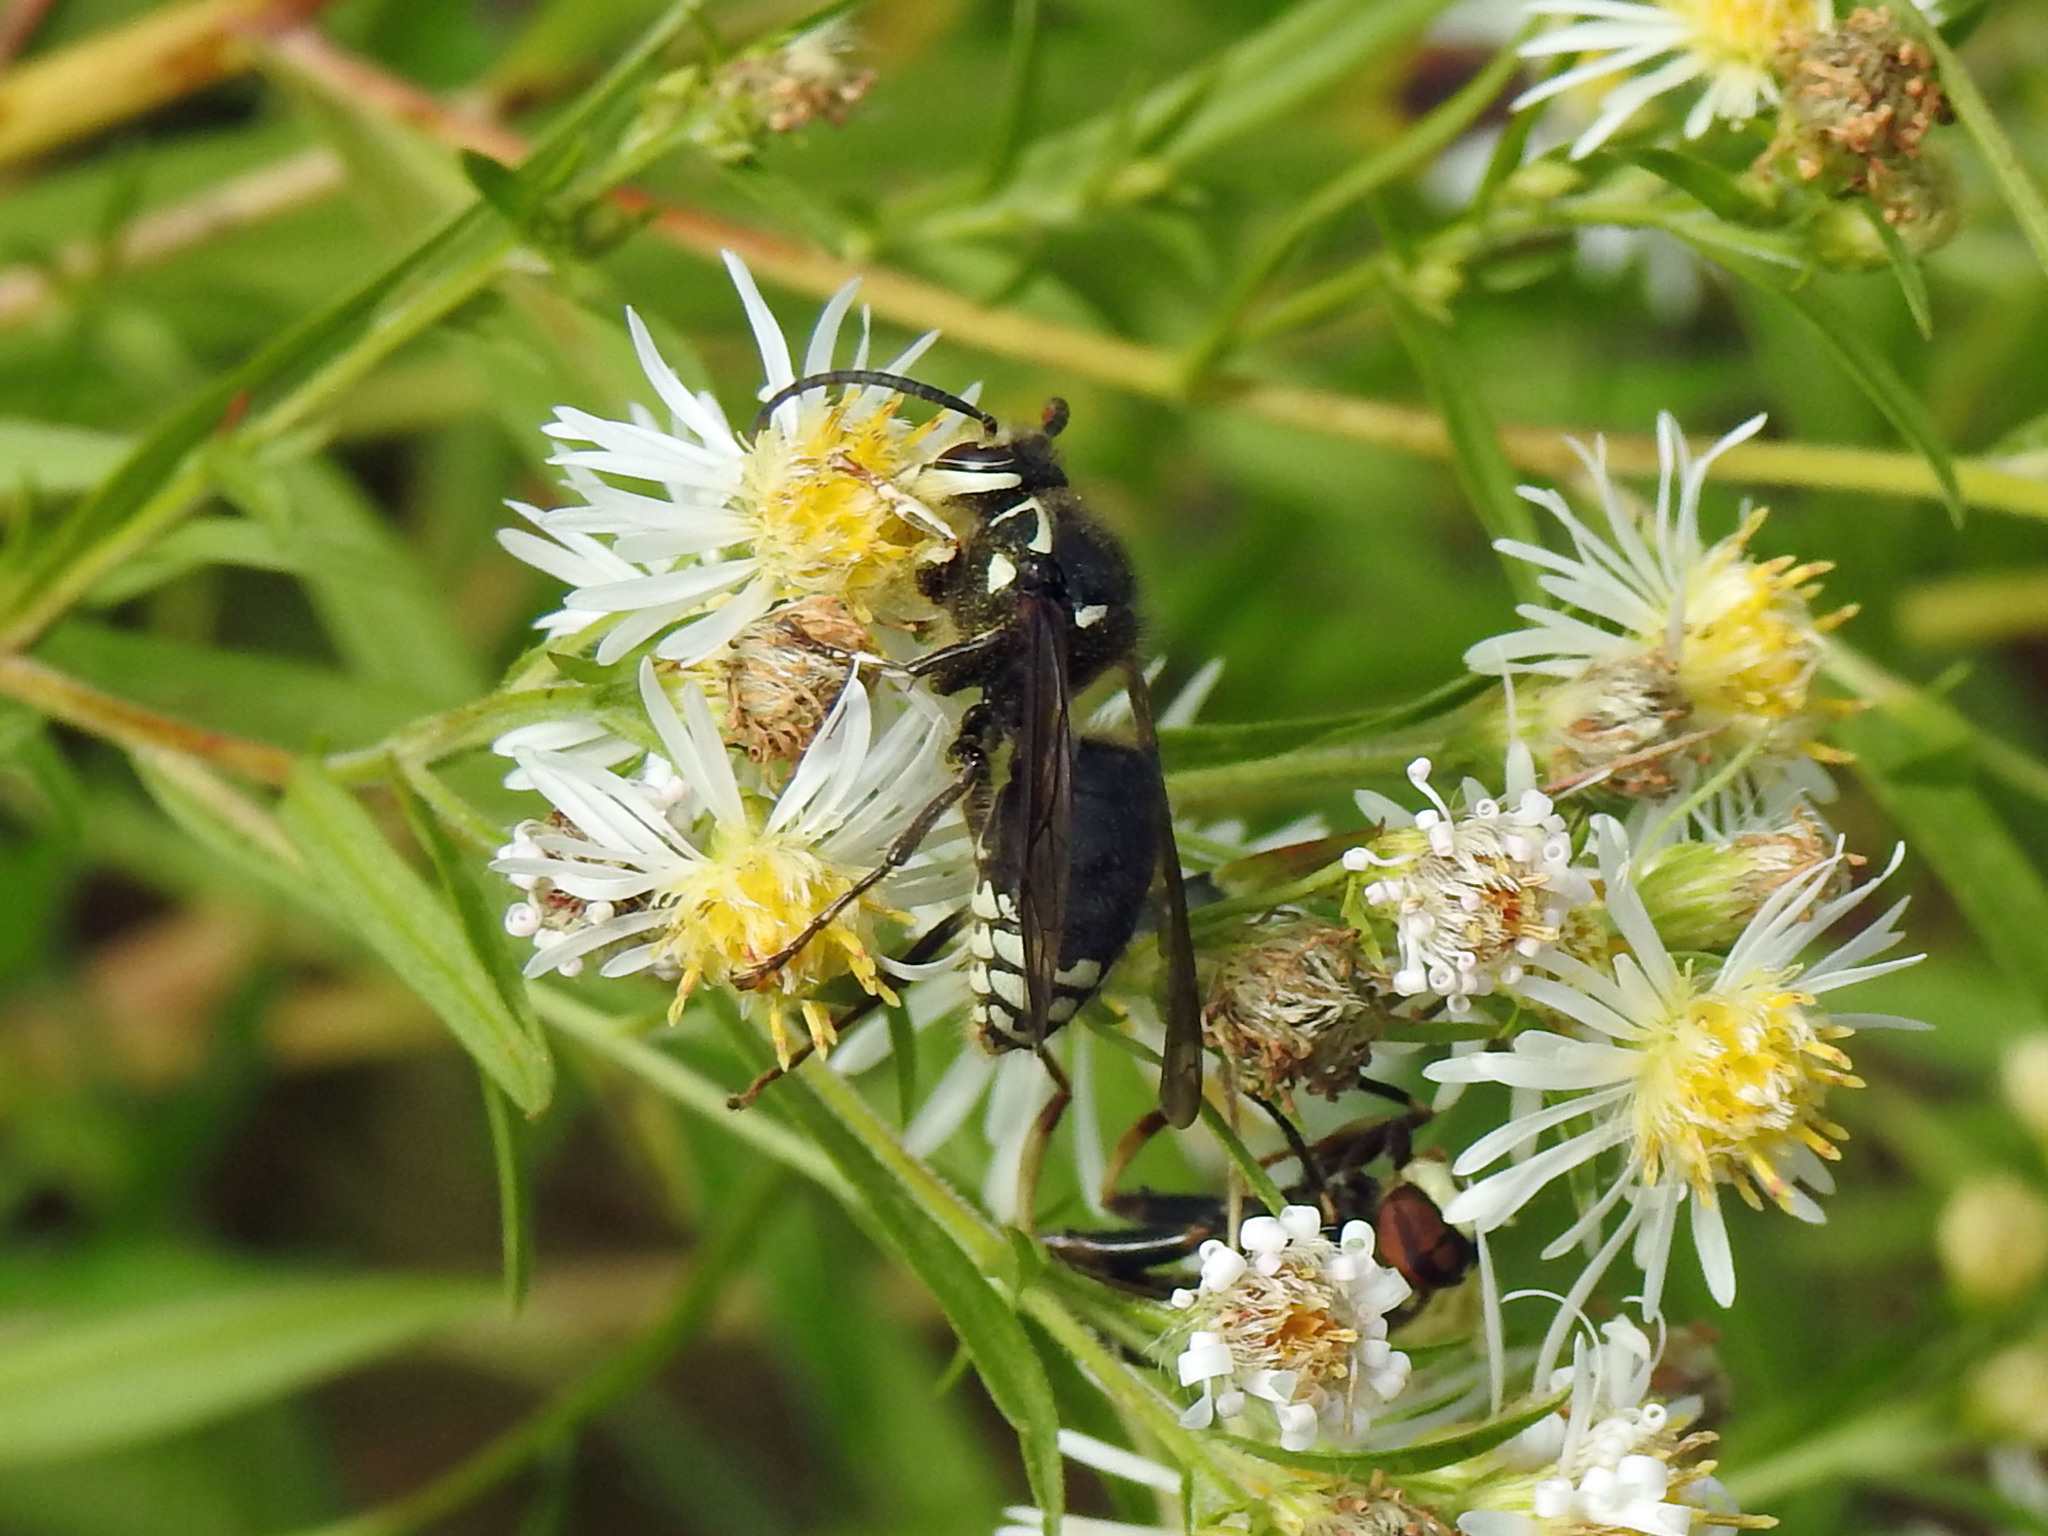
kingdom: Animalia
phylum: Arthropoda
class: Insecta
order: Hymenoptera
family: Vespidae
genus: Dolichovespula
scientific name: Dolichovespula maculata
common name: Bald-faced hornet
